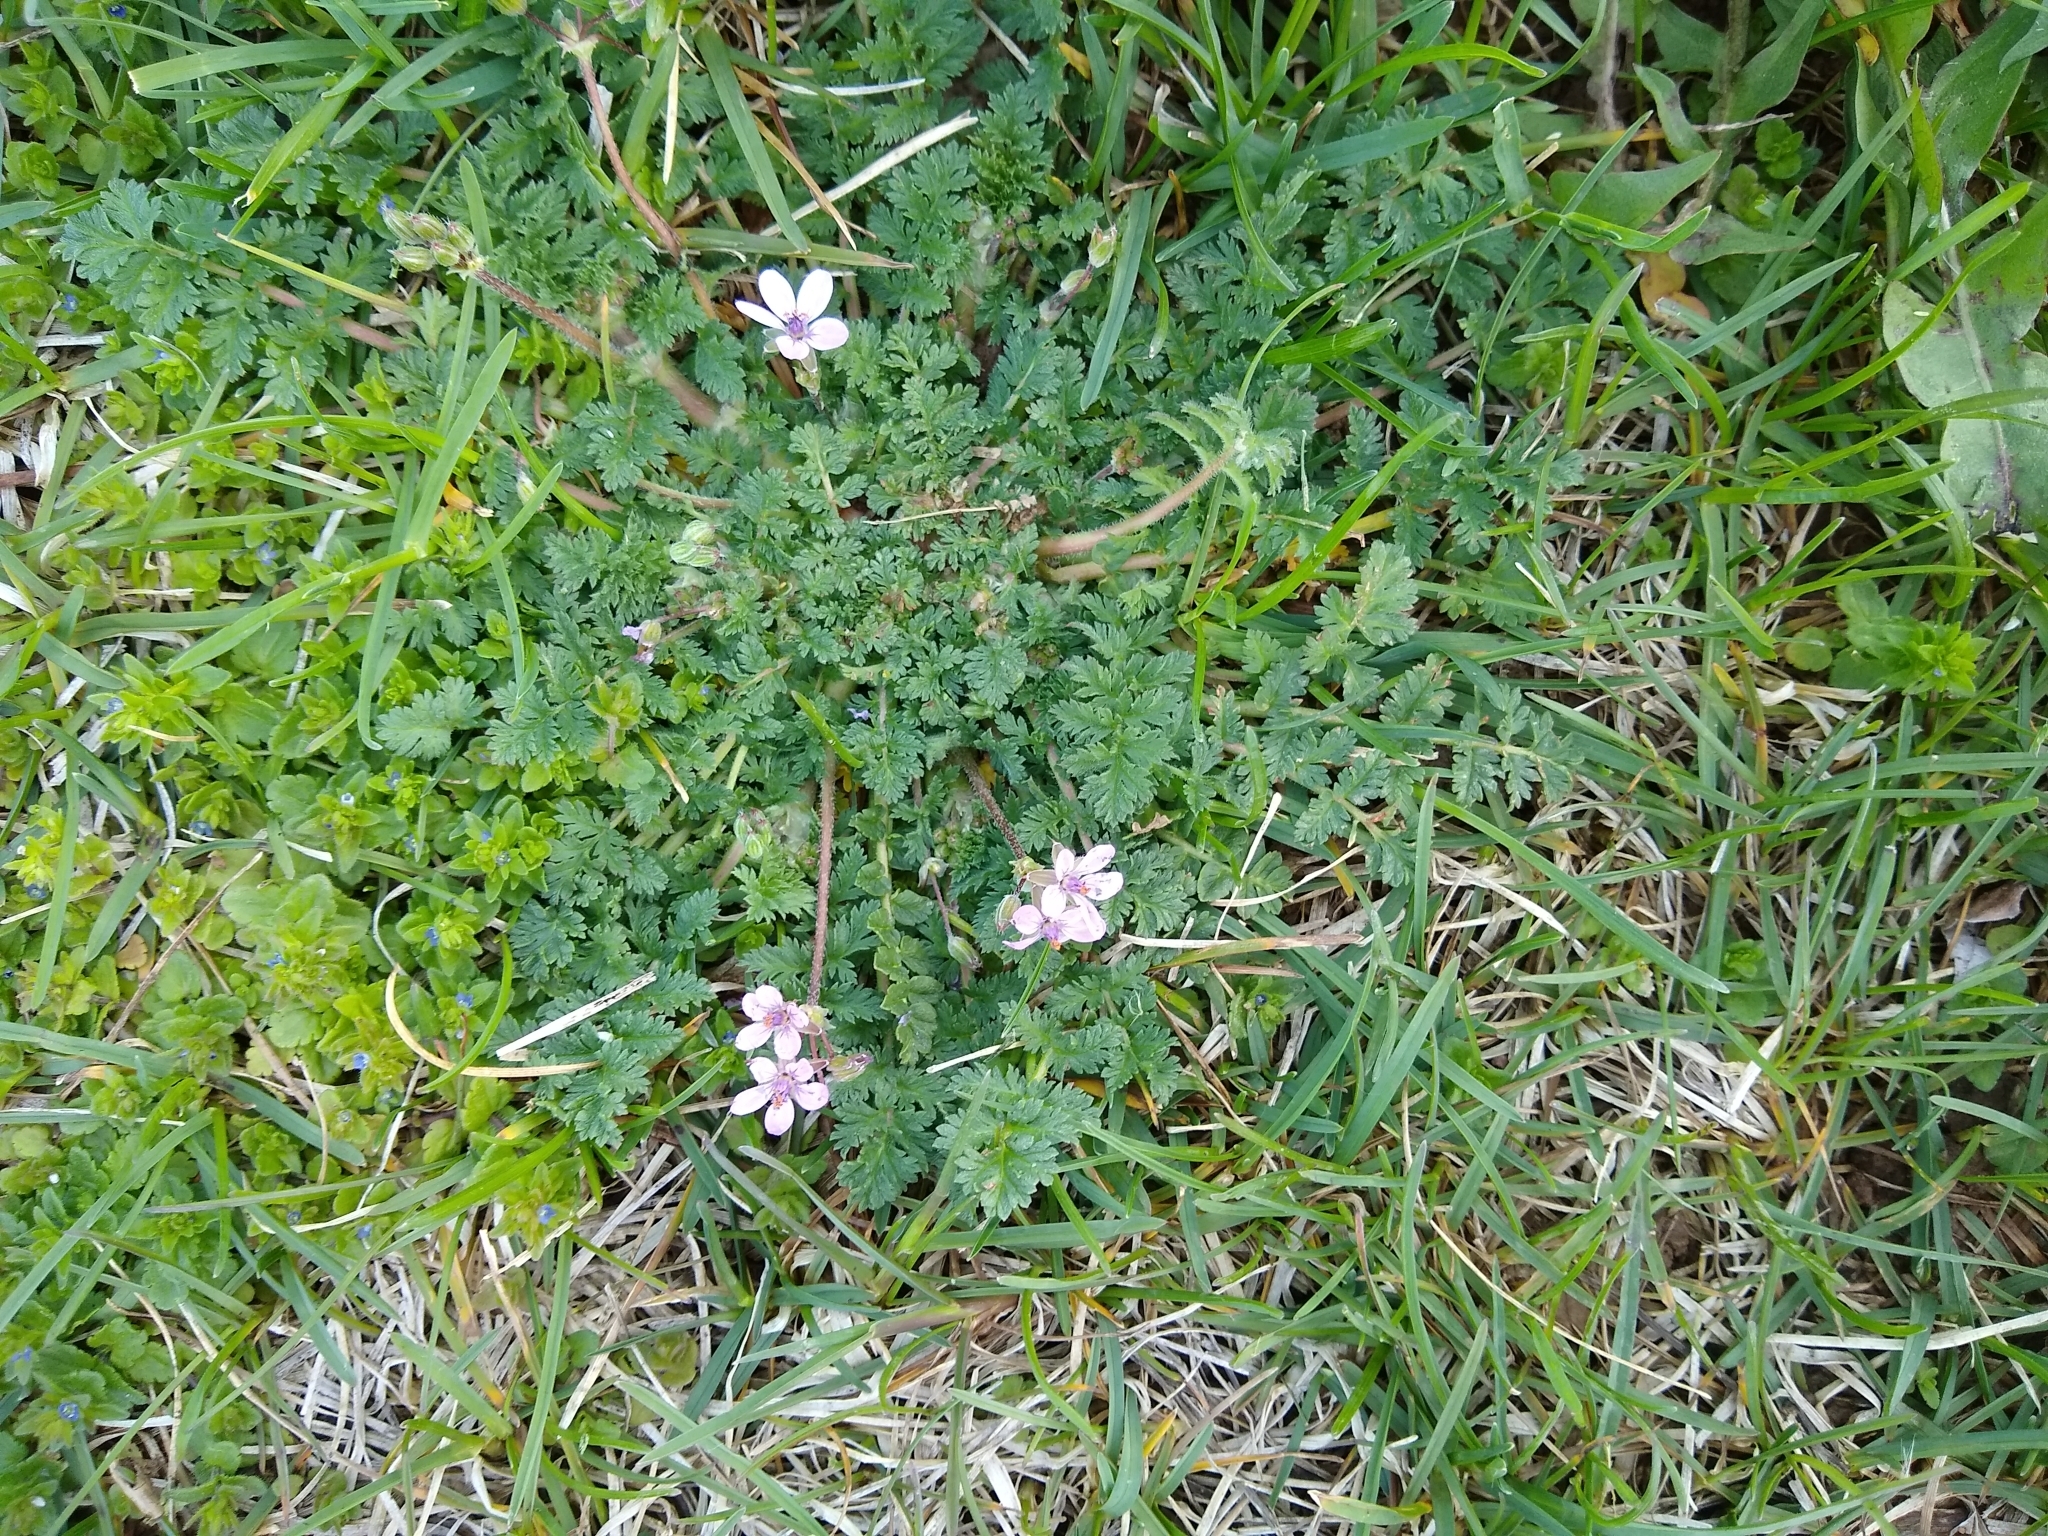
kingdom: Plantae
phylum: Tracheophyta
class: Magnoliopsida
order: Geraniales
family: Geraniaceae
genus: Erodium
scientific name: Erodium cicutarium
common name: Common stork's-bill
